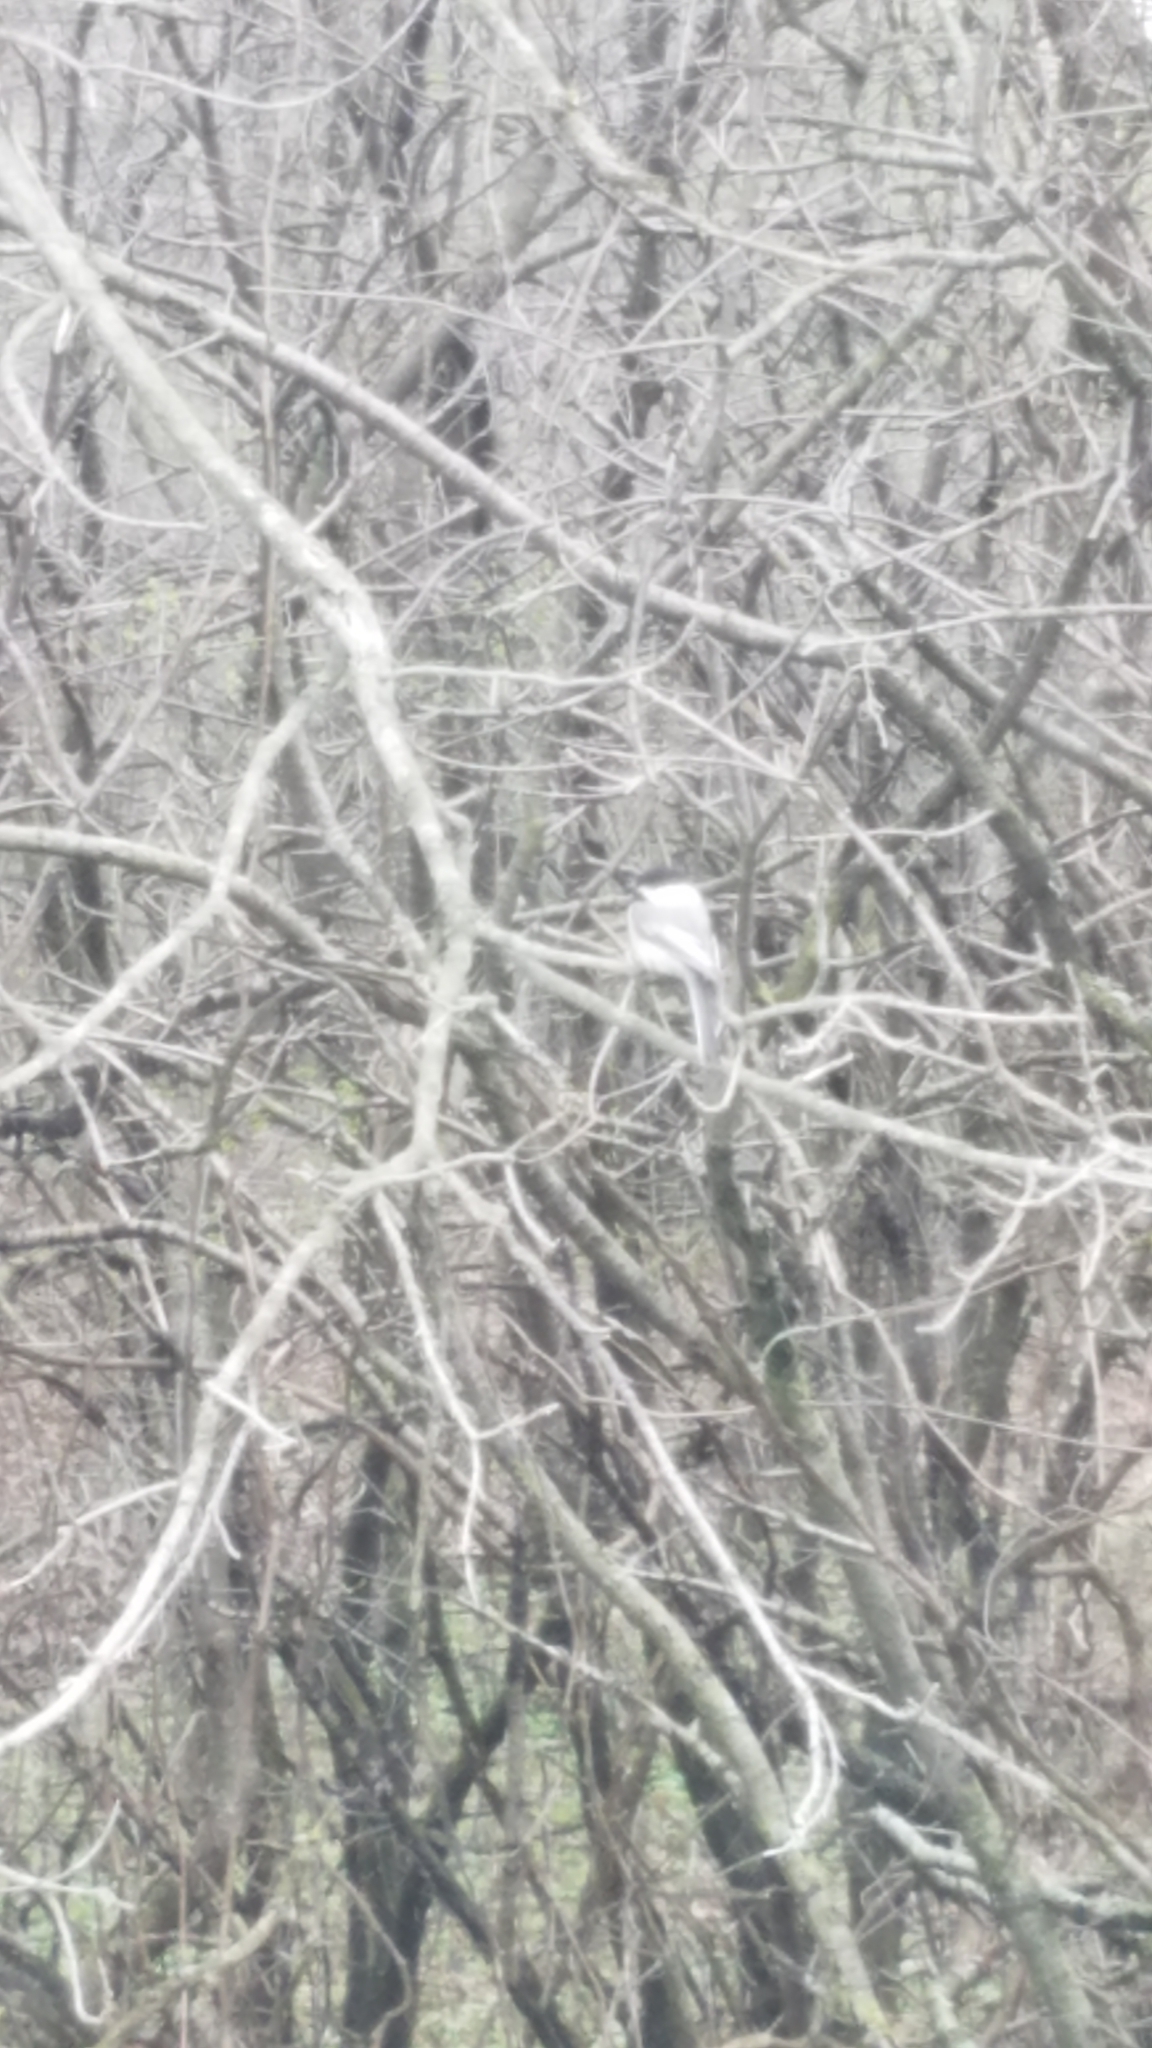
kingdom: Animalia
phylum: Chordata
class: Aves
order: Passeriformes
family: Paridae
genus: Poecile
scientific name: Poecile atricapillus
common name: Black-capped chickadee
